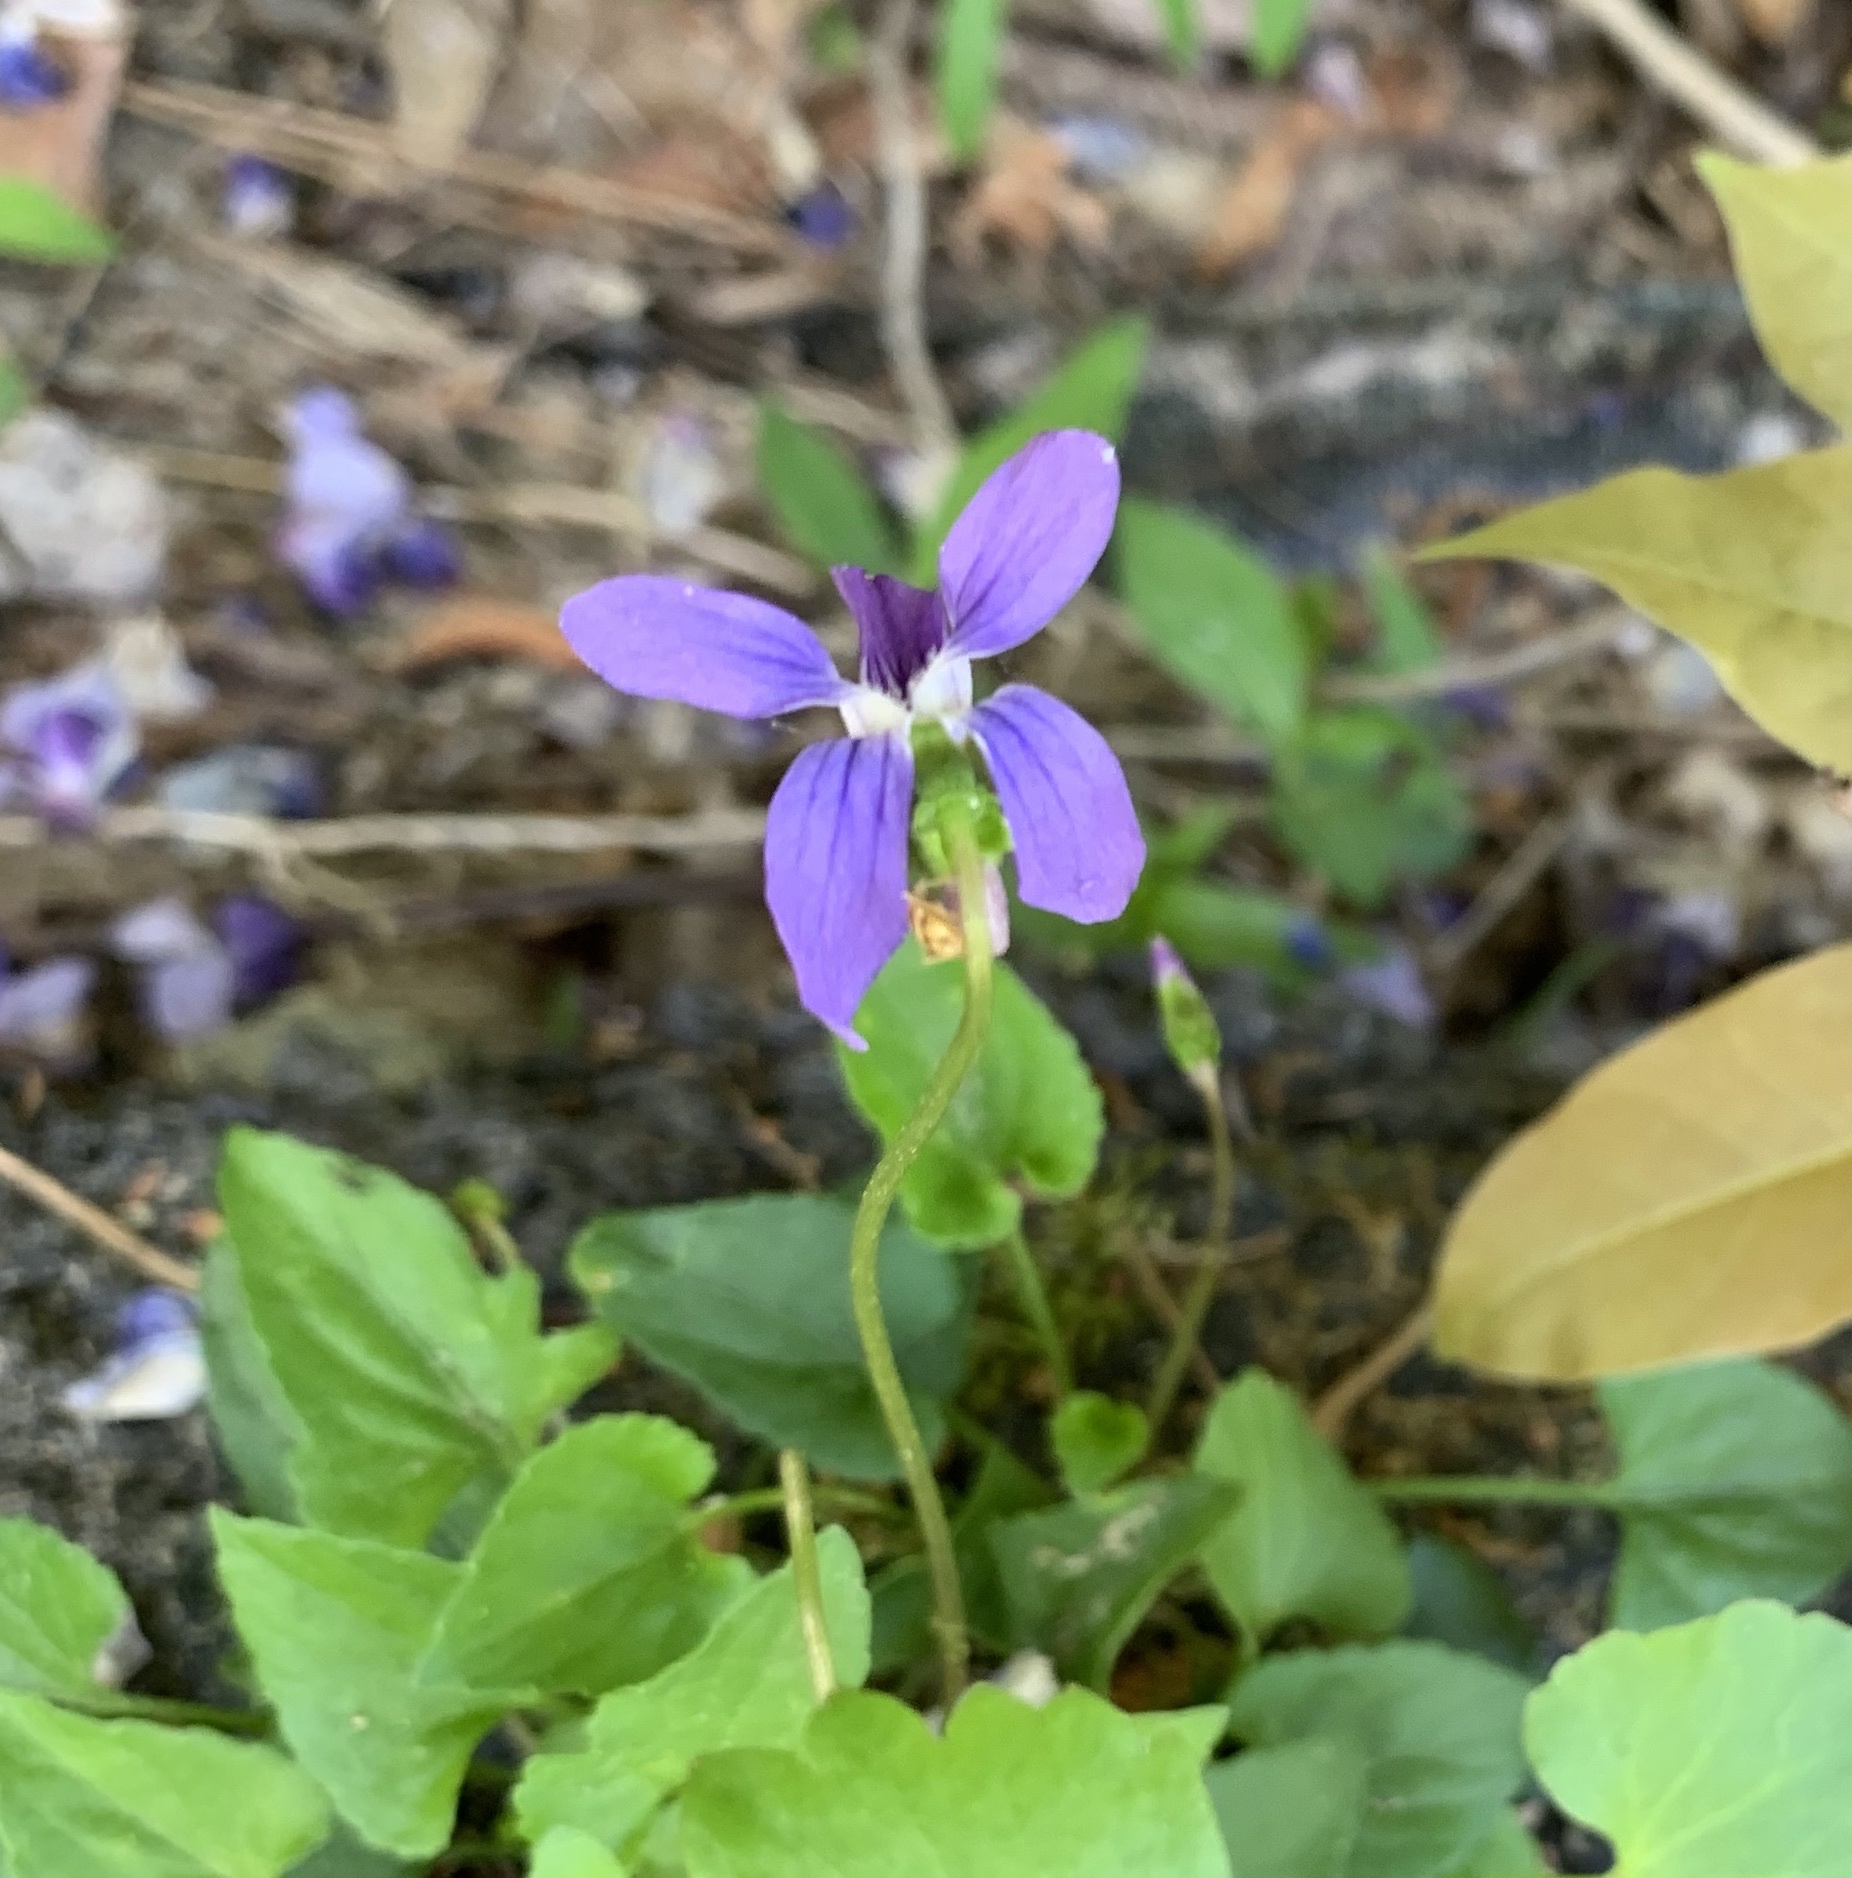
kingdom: Plantae
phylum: Tracheophyta
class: Magnoliopsida
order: Malpighiales
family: Violaceae
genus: Viola
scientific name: Viola sagittata
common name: Arrowhead violet
